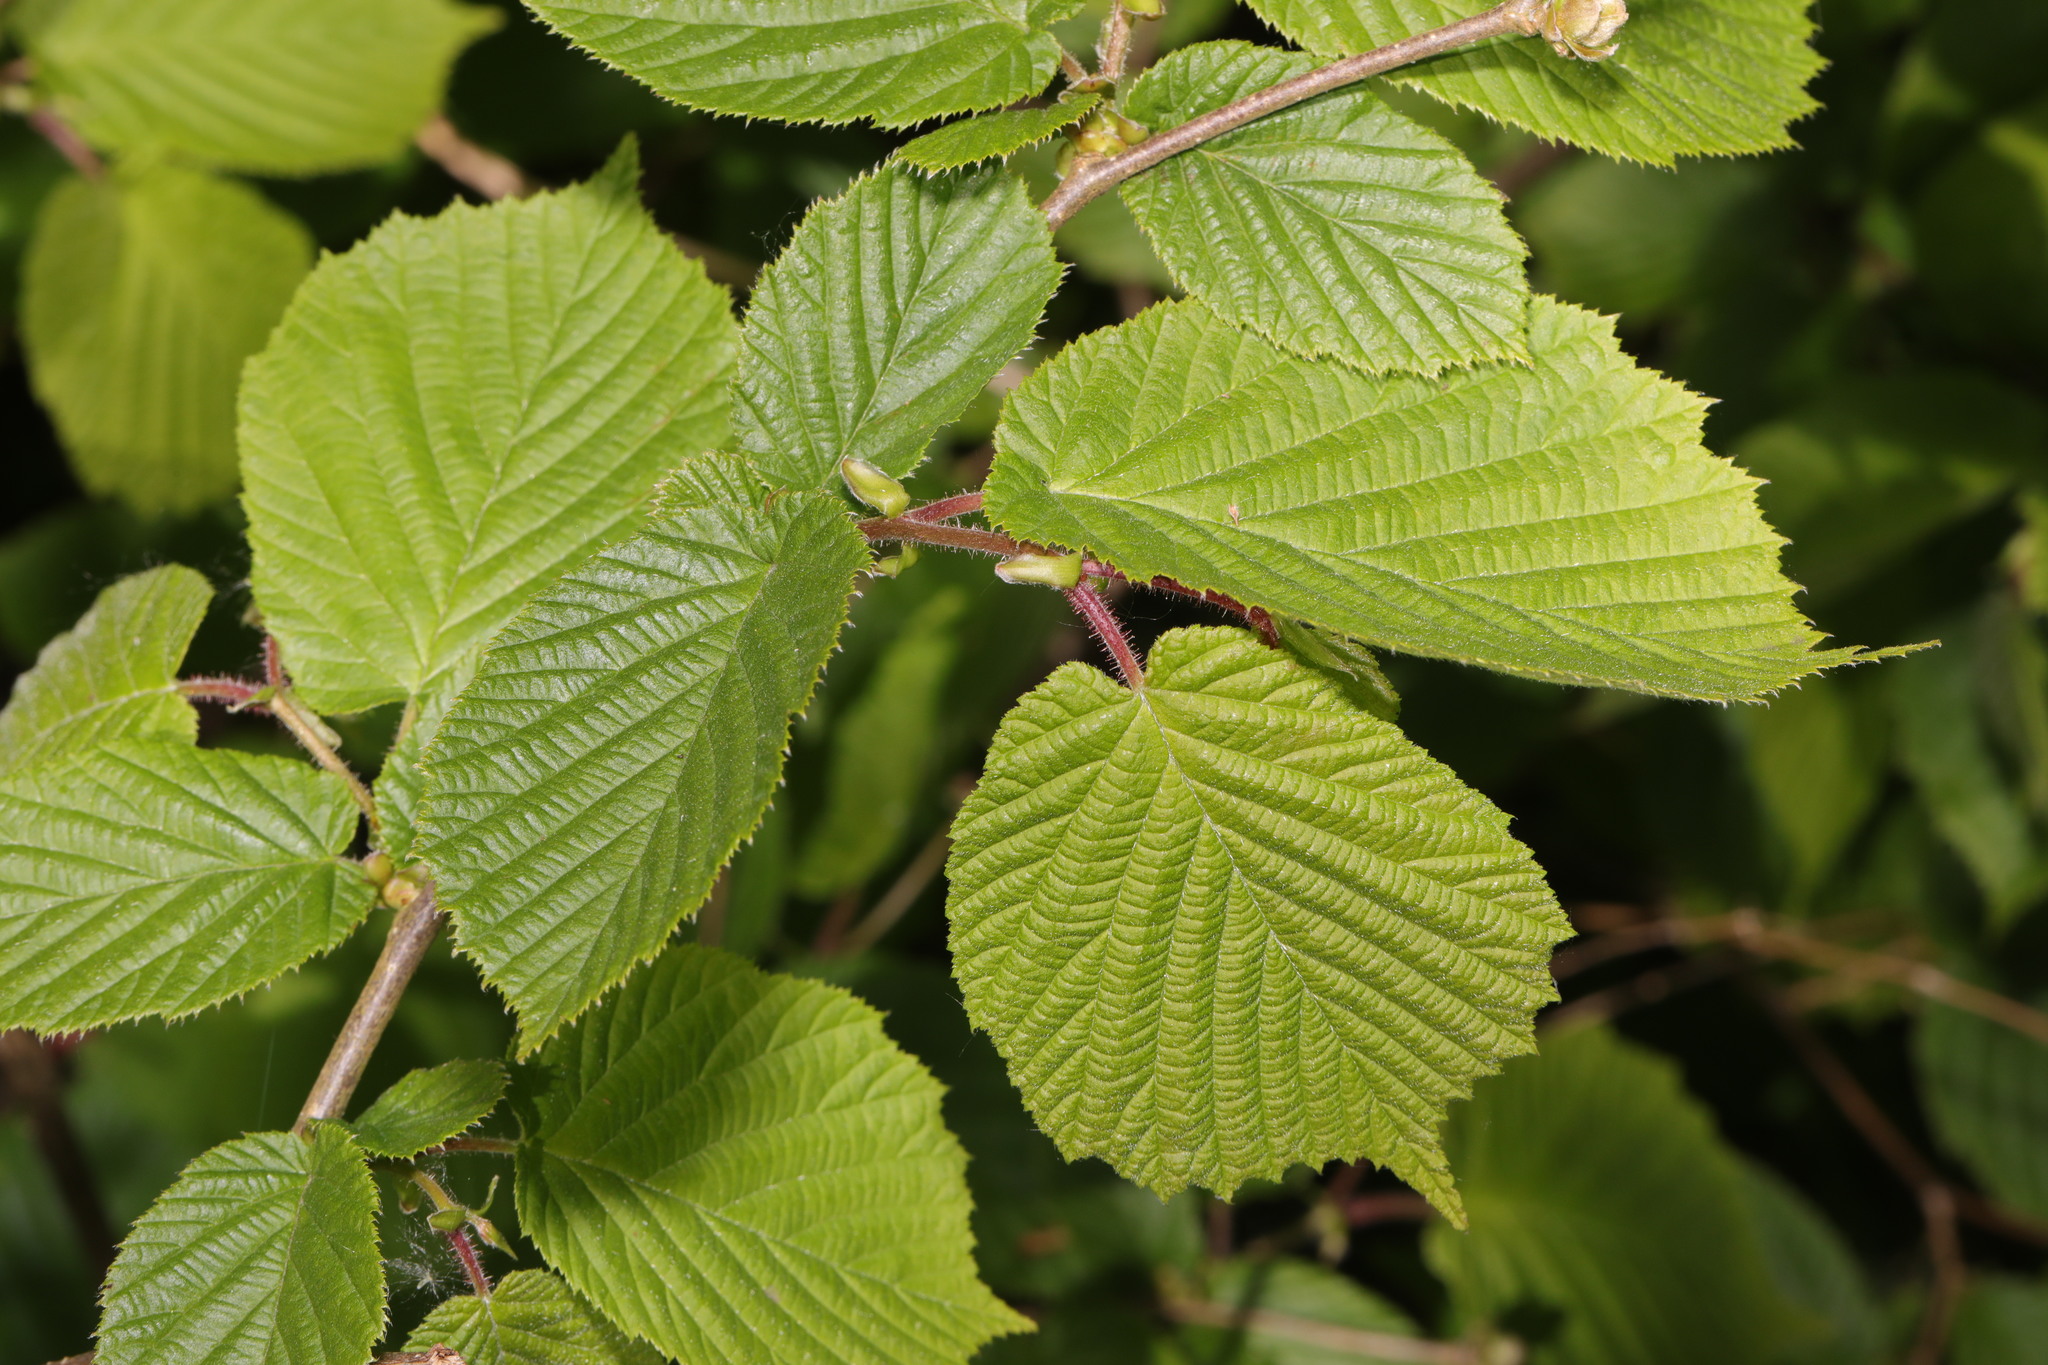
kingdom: Plantae
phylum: Tracheophyta
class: Magnoliopsida
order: Fagales
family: Betulaceae
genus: Corylus
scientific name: Corylus avellana
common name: European hazel
